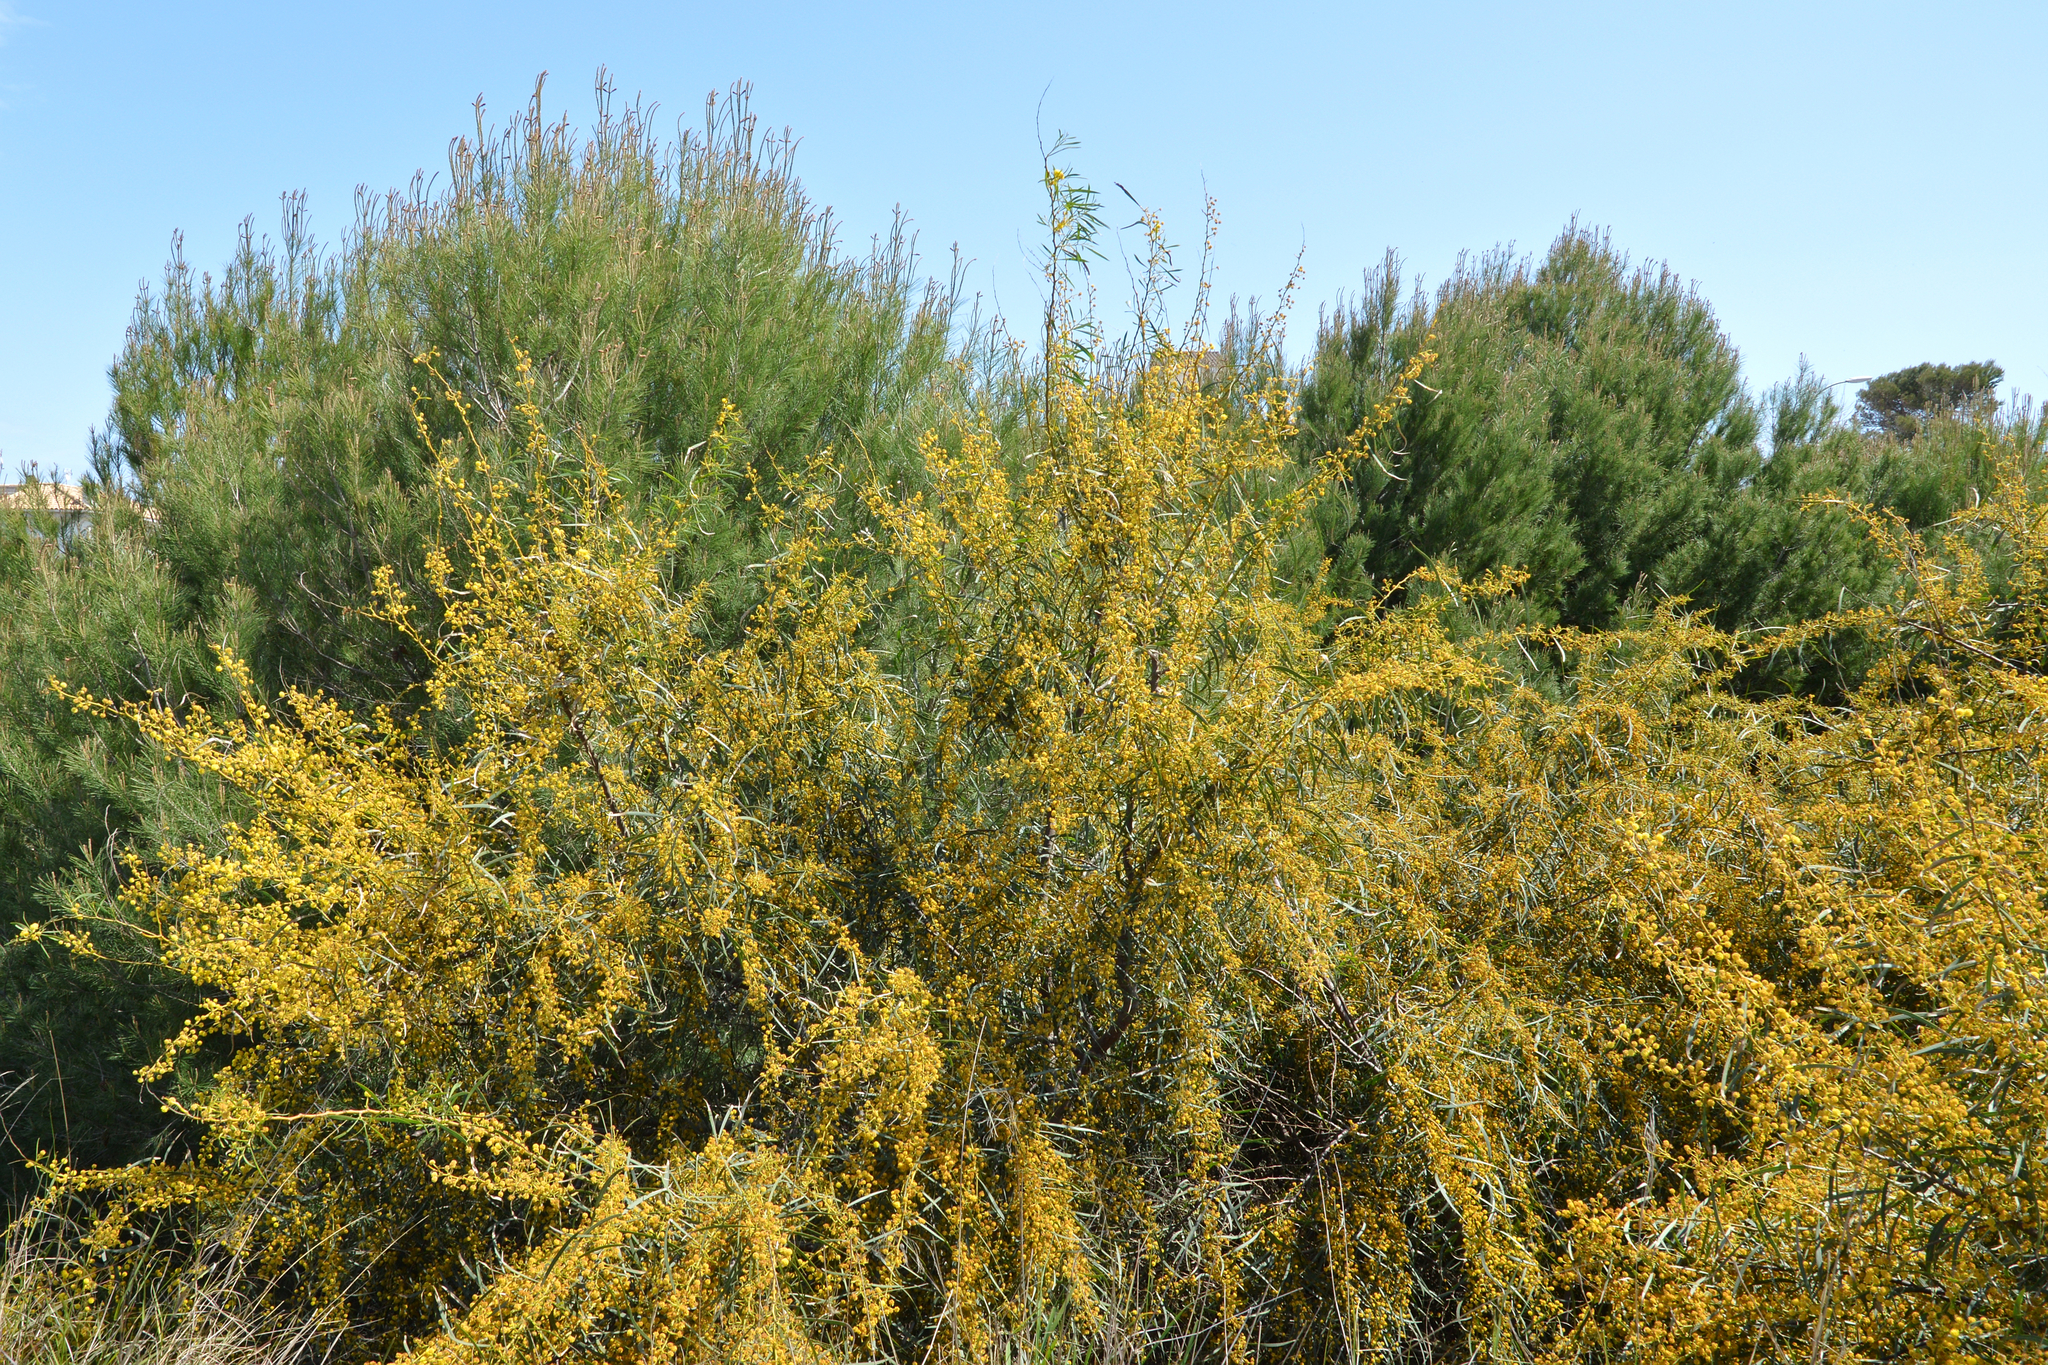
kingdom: Plantae
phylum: Tracheophyta
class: Magnoliopsida
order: Fabales
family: Fabaceae
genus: Acacia
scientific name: Acacia saligna
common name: Orange wattle
